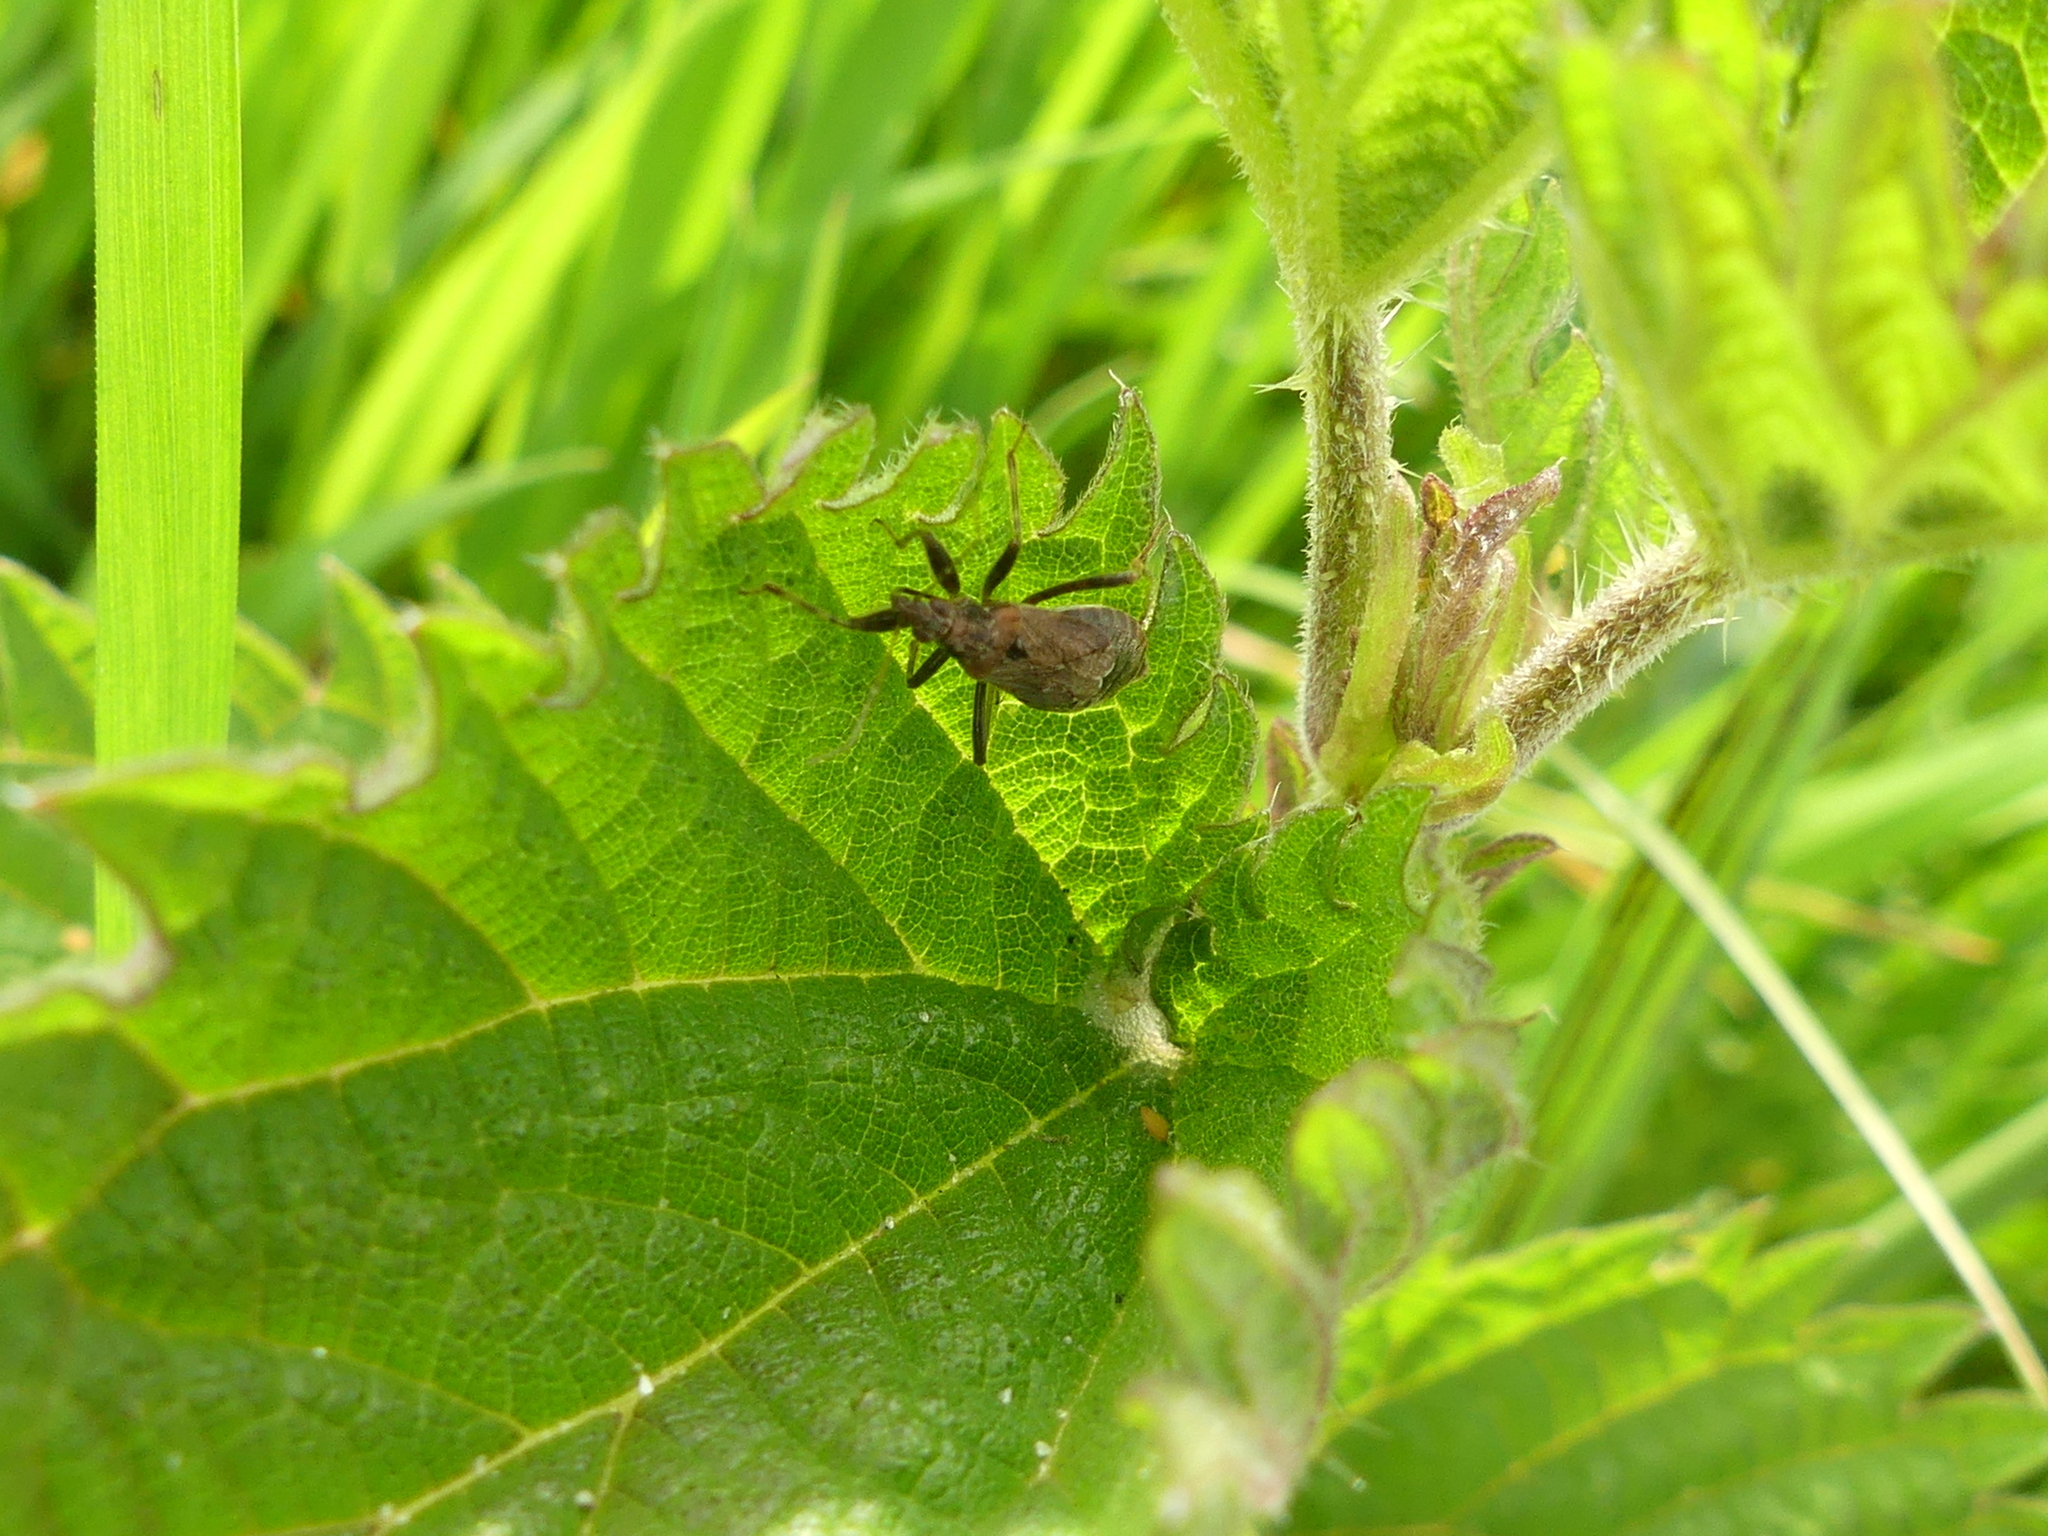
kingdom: Animalia
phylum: Arthropoda
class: Insecta
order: Hemiptera
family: Nabidae
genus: Himacerus
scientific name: Himacerus mirmicoides
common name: Ant damsel bug
